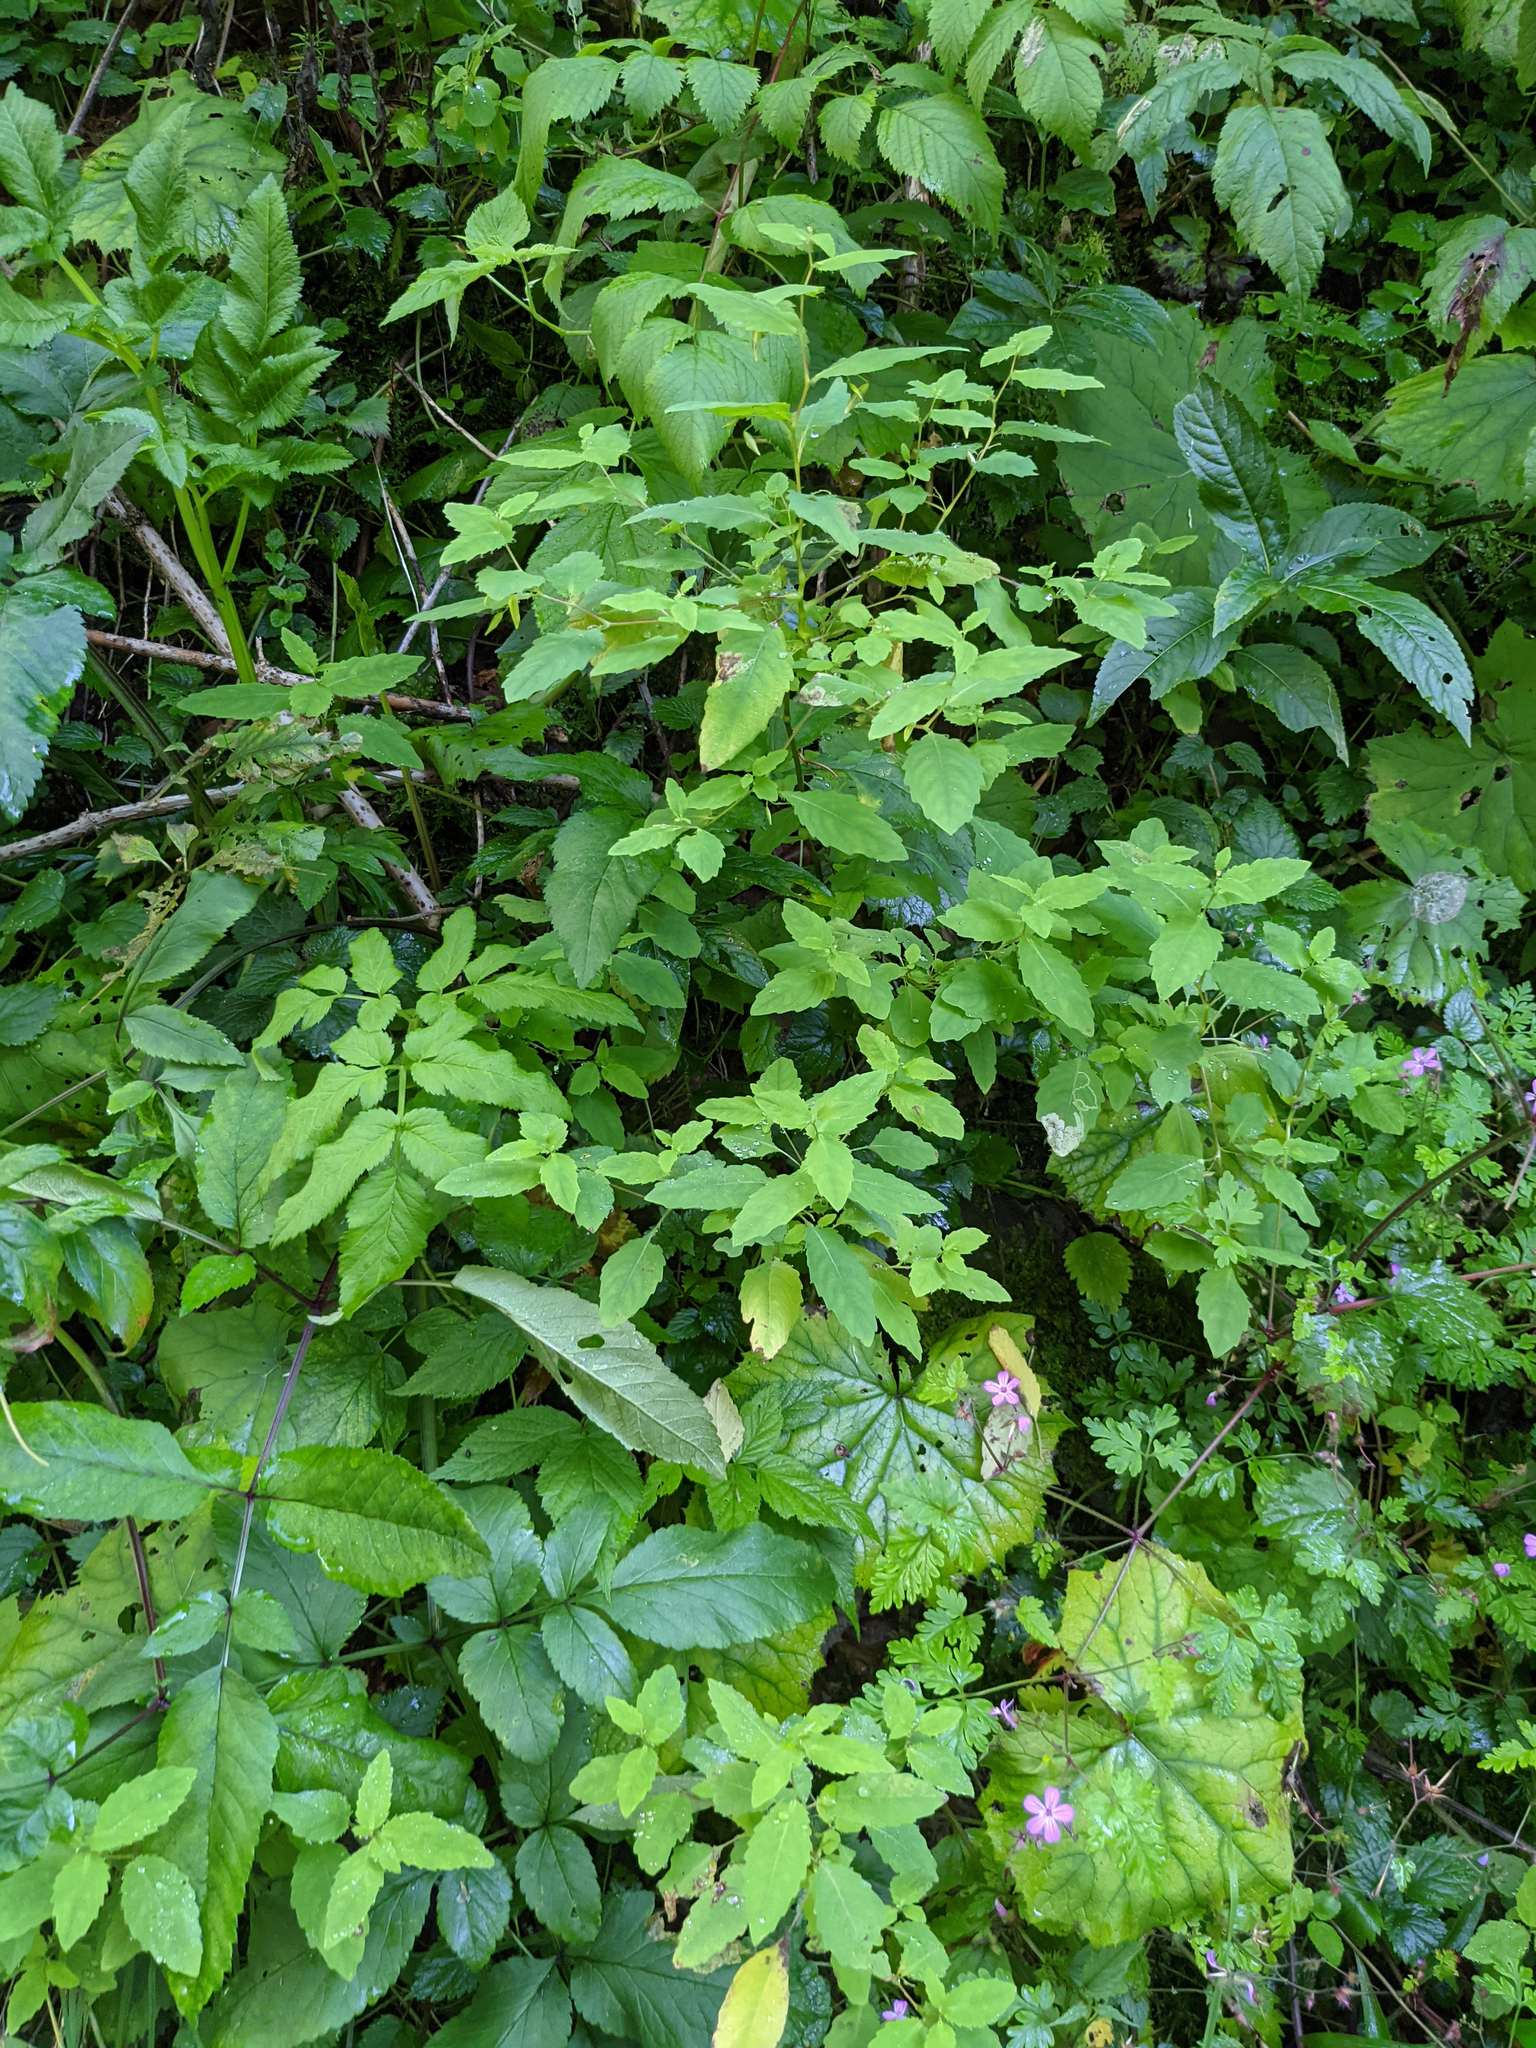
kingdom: Plantae
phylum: Tracheophyta
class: Magnoliopsida
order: Ericales
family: Balsaminaceae
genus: Impatiens
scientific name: Impatiens noli-tangere
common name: Touch-me-not balsam
